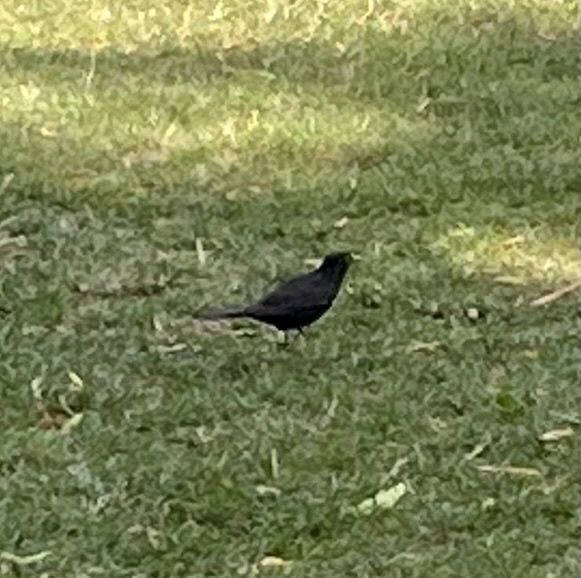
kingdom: Animalia
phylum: Chordata
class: Aves
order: Passeriformes
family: Turdidae
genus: Turdus
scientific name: Turdus merula
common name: Common blackbird
